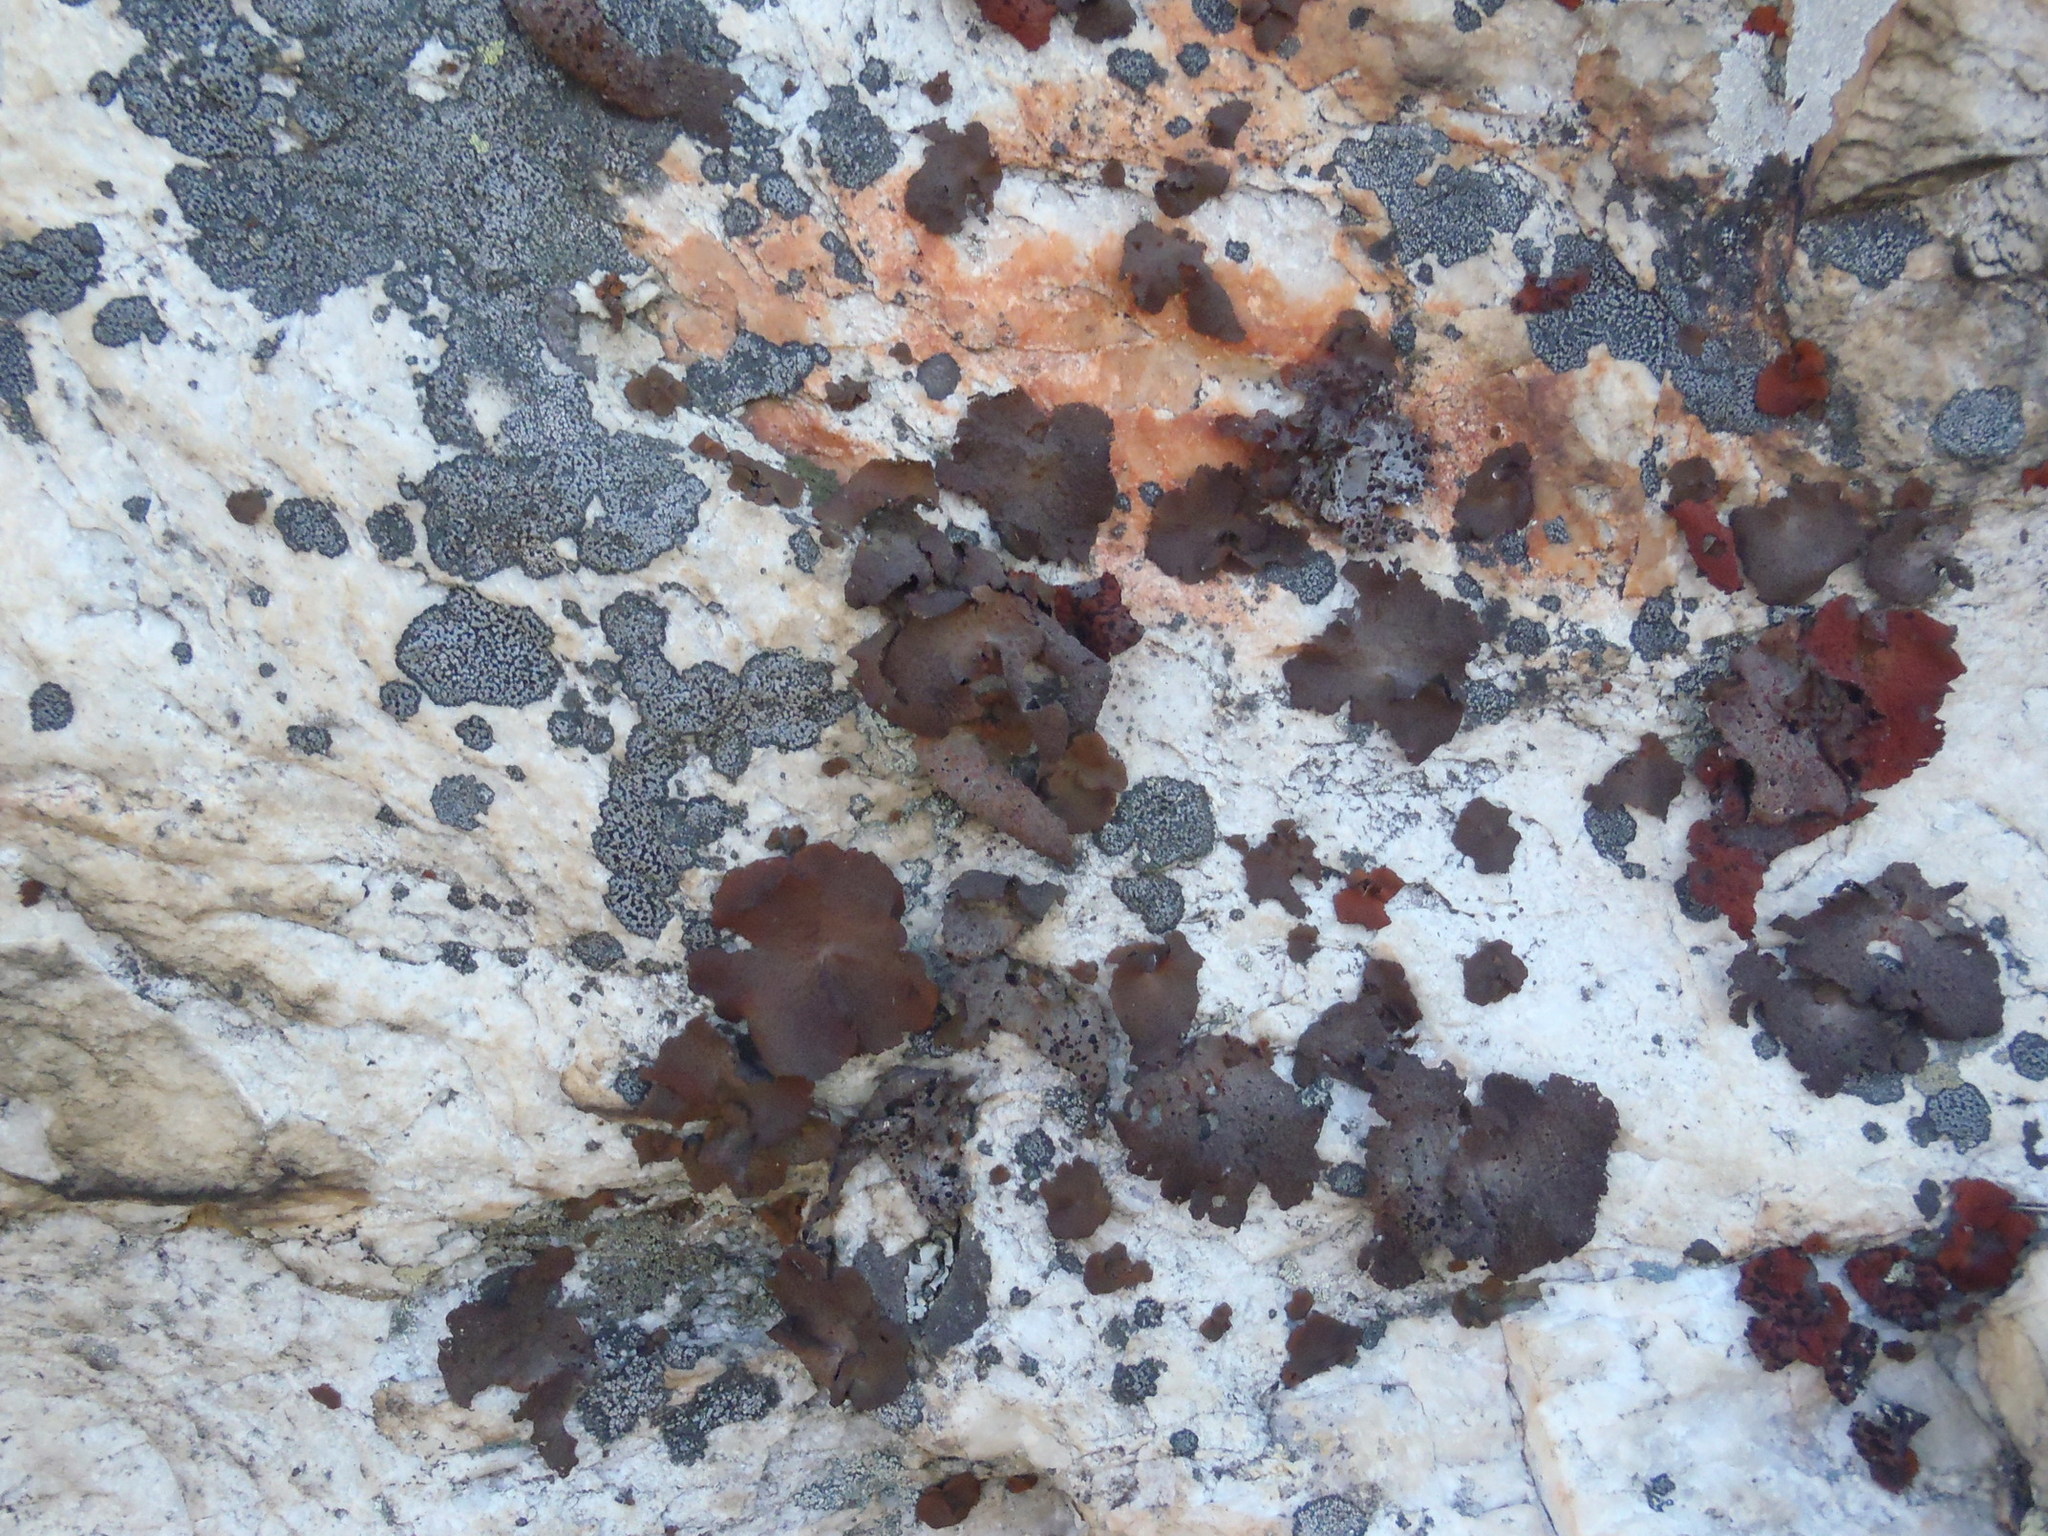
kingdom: Fungi
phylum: Ascomycota
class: Lecanoromycetes
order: Umbilicariales
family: Umbilicariaceae
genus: Lasallia
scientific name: Lasallia rubiginosa
